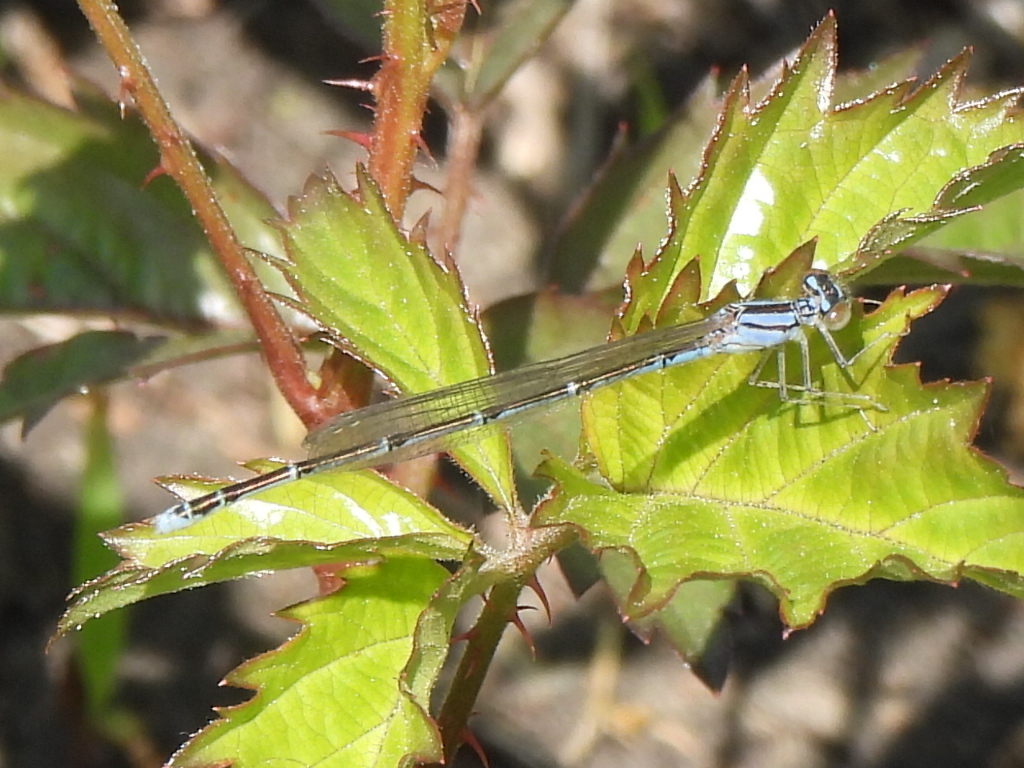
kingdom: Animalia
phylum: Arthropoda
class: Insecta
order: Odonata
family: Coenagrionidae
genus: Enallagma
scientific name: Enallagma signatum
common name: Orange bluet
